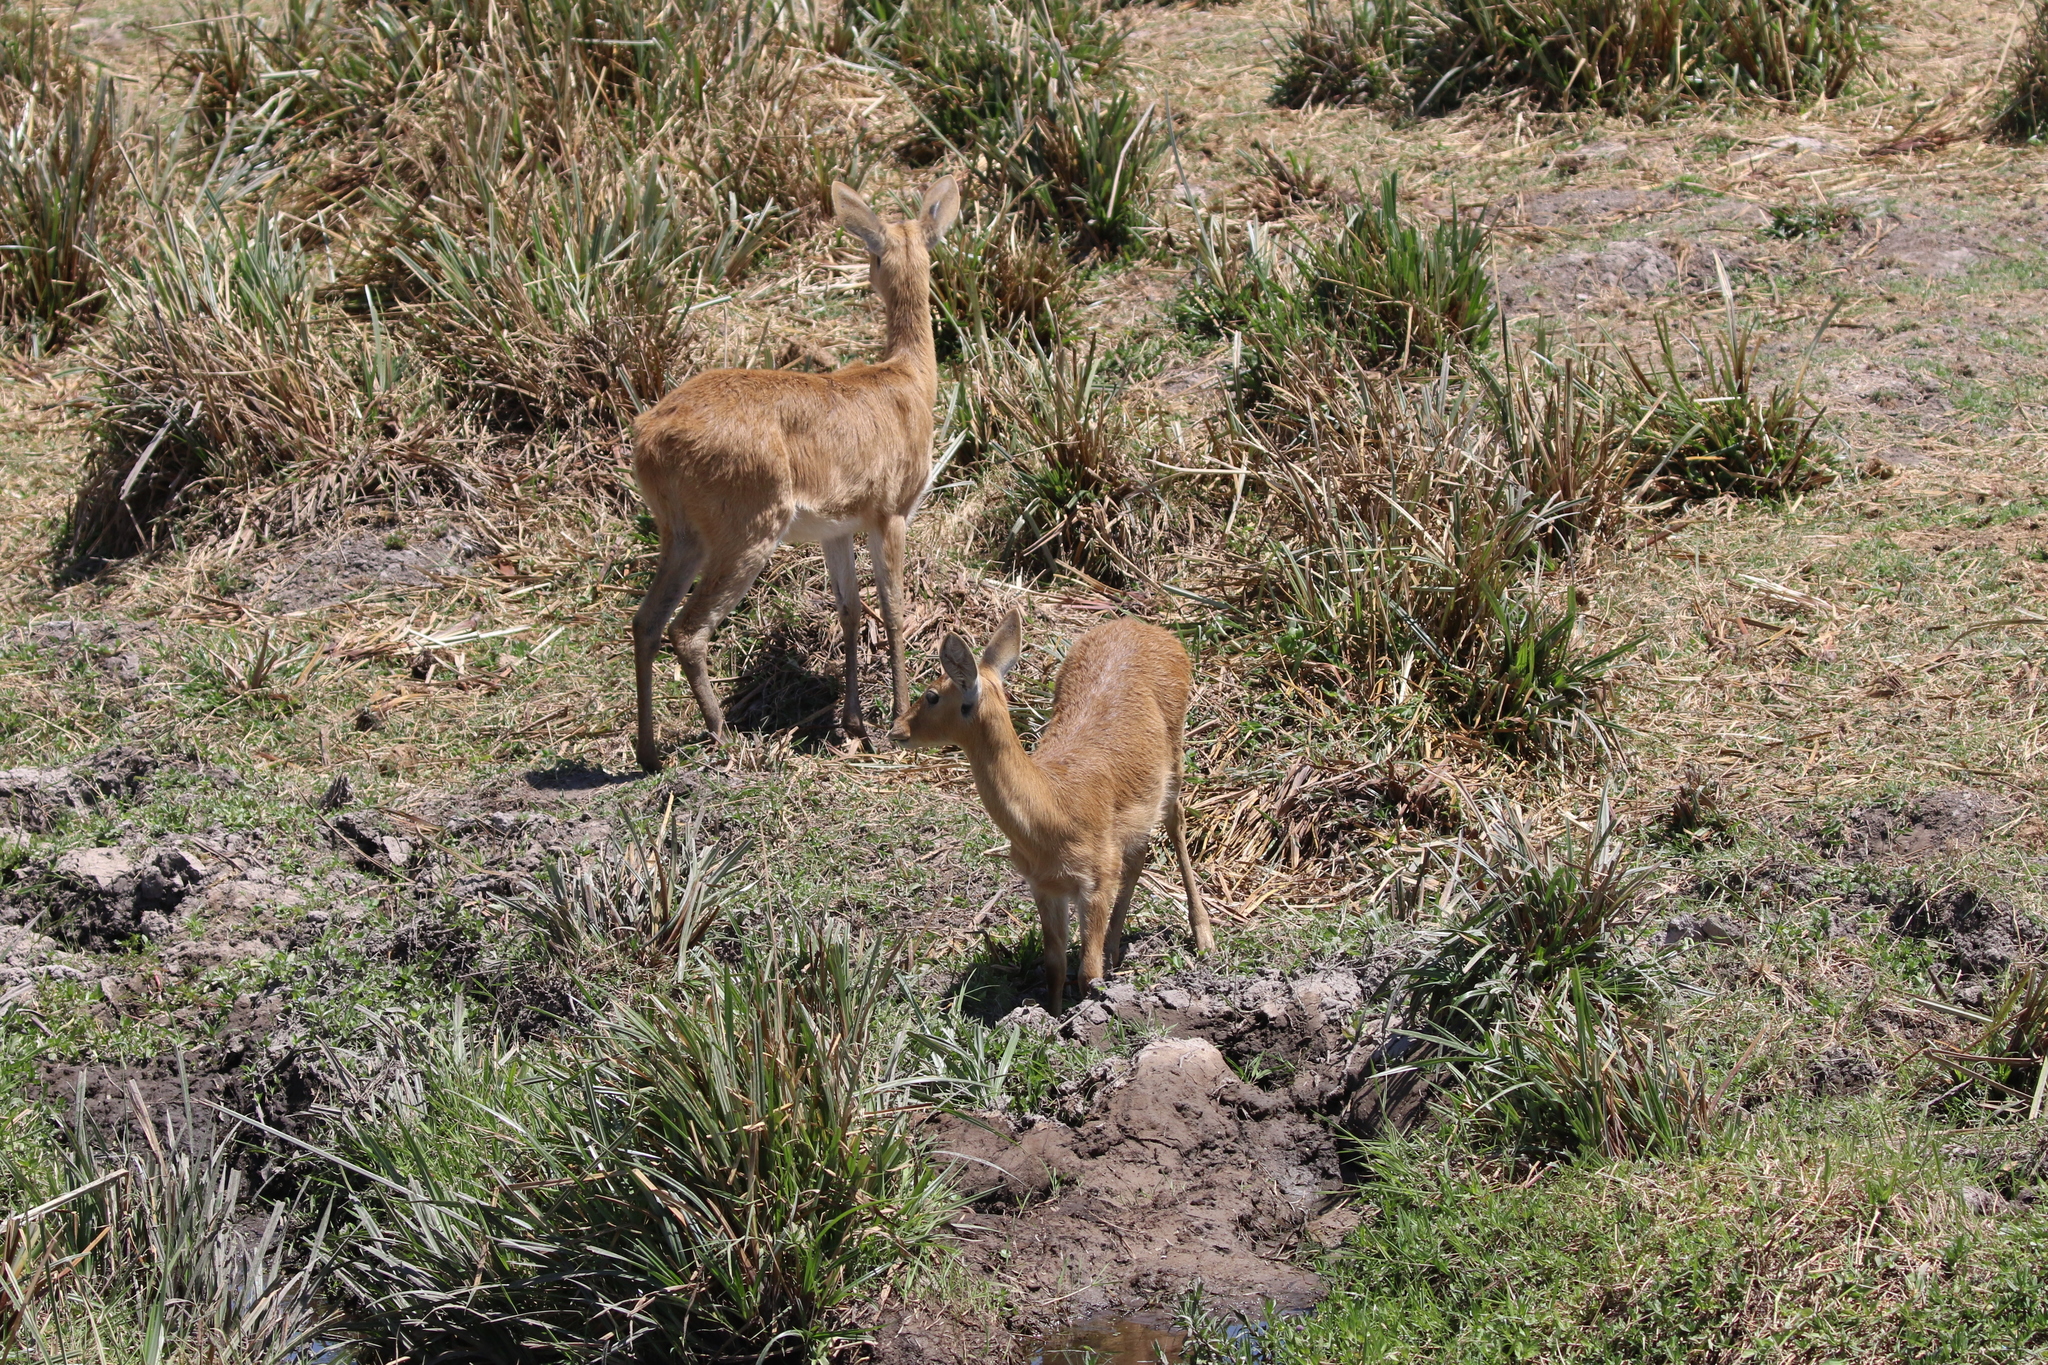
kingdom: Animalia
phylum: Chordata
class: Mammalia
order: Artiodactyla
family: Bovidae
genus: Redunca
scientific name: Redunca redunca
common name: Common reedbuck
